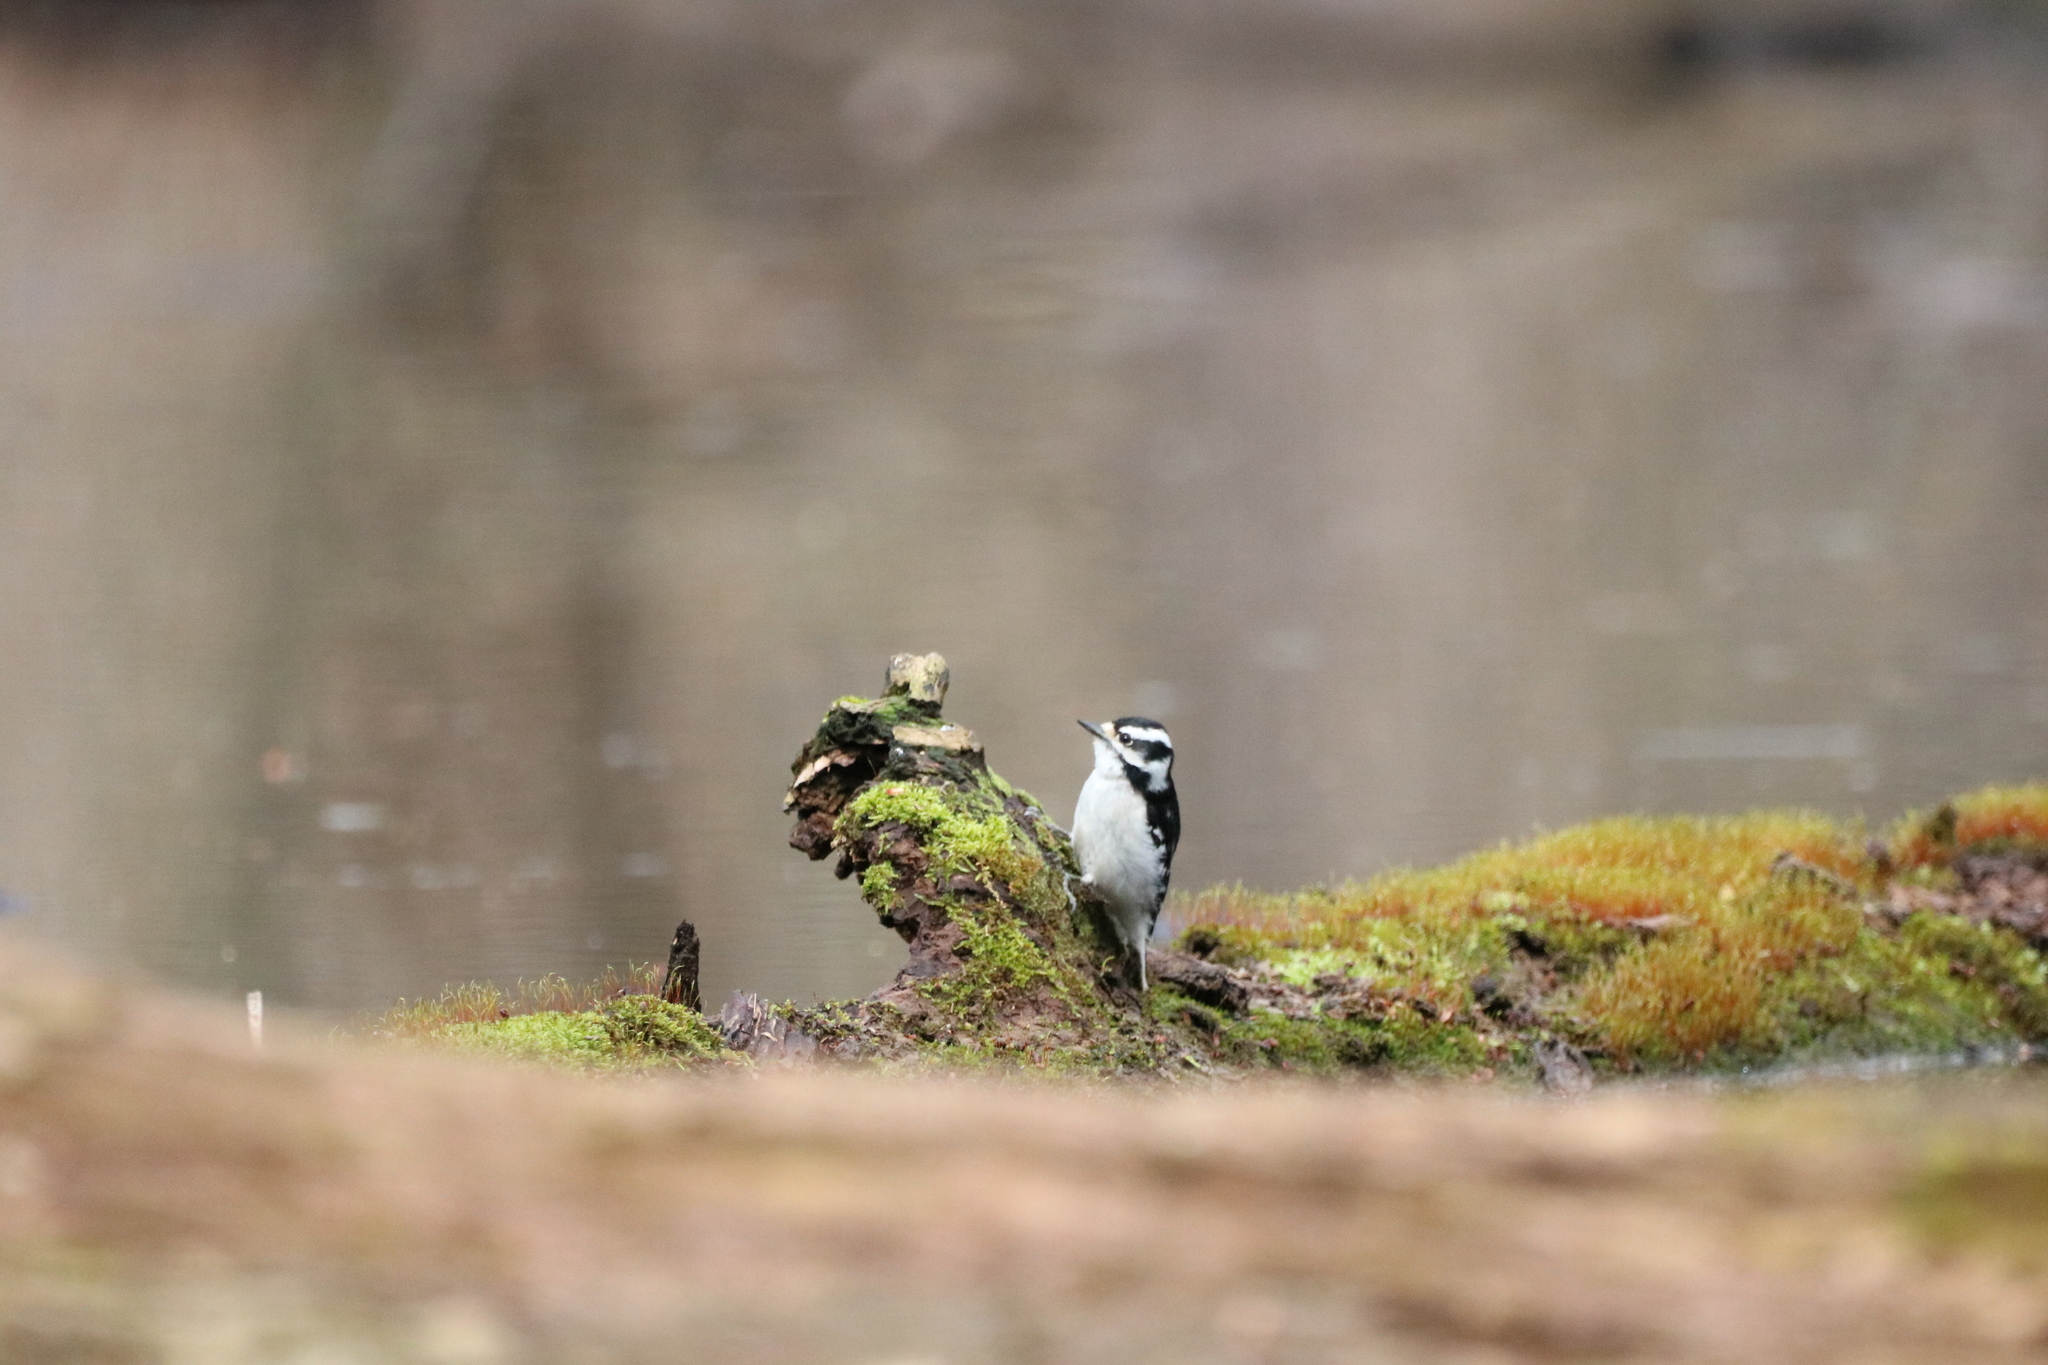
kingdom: Animalia
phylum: Chordata
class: Aves
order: Piciformes
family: Picidae
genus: Dryobates
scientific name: Dryobates pubescens
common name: Downy woodpecker
